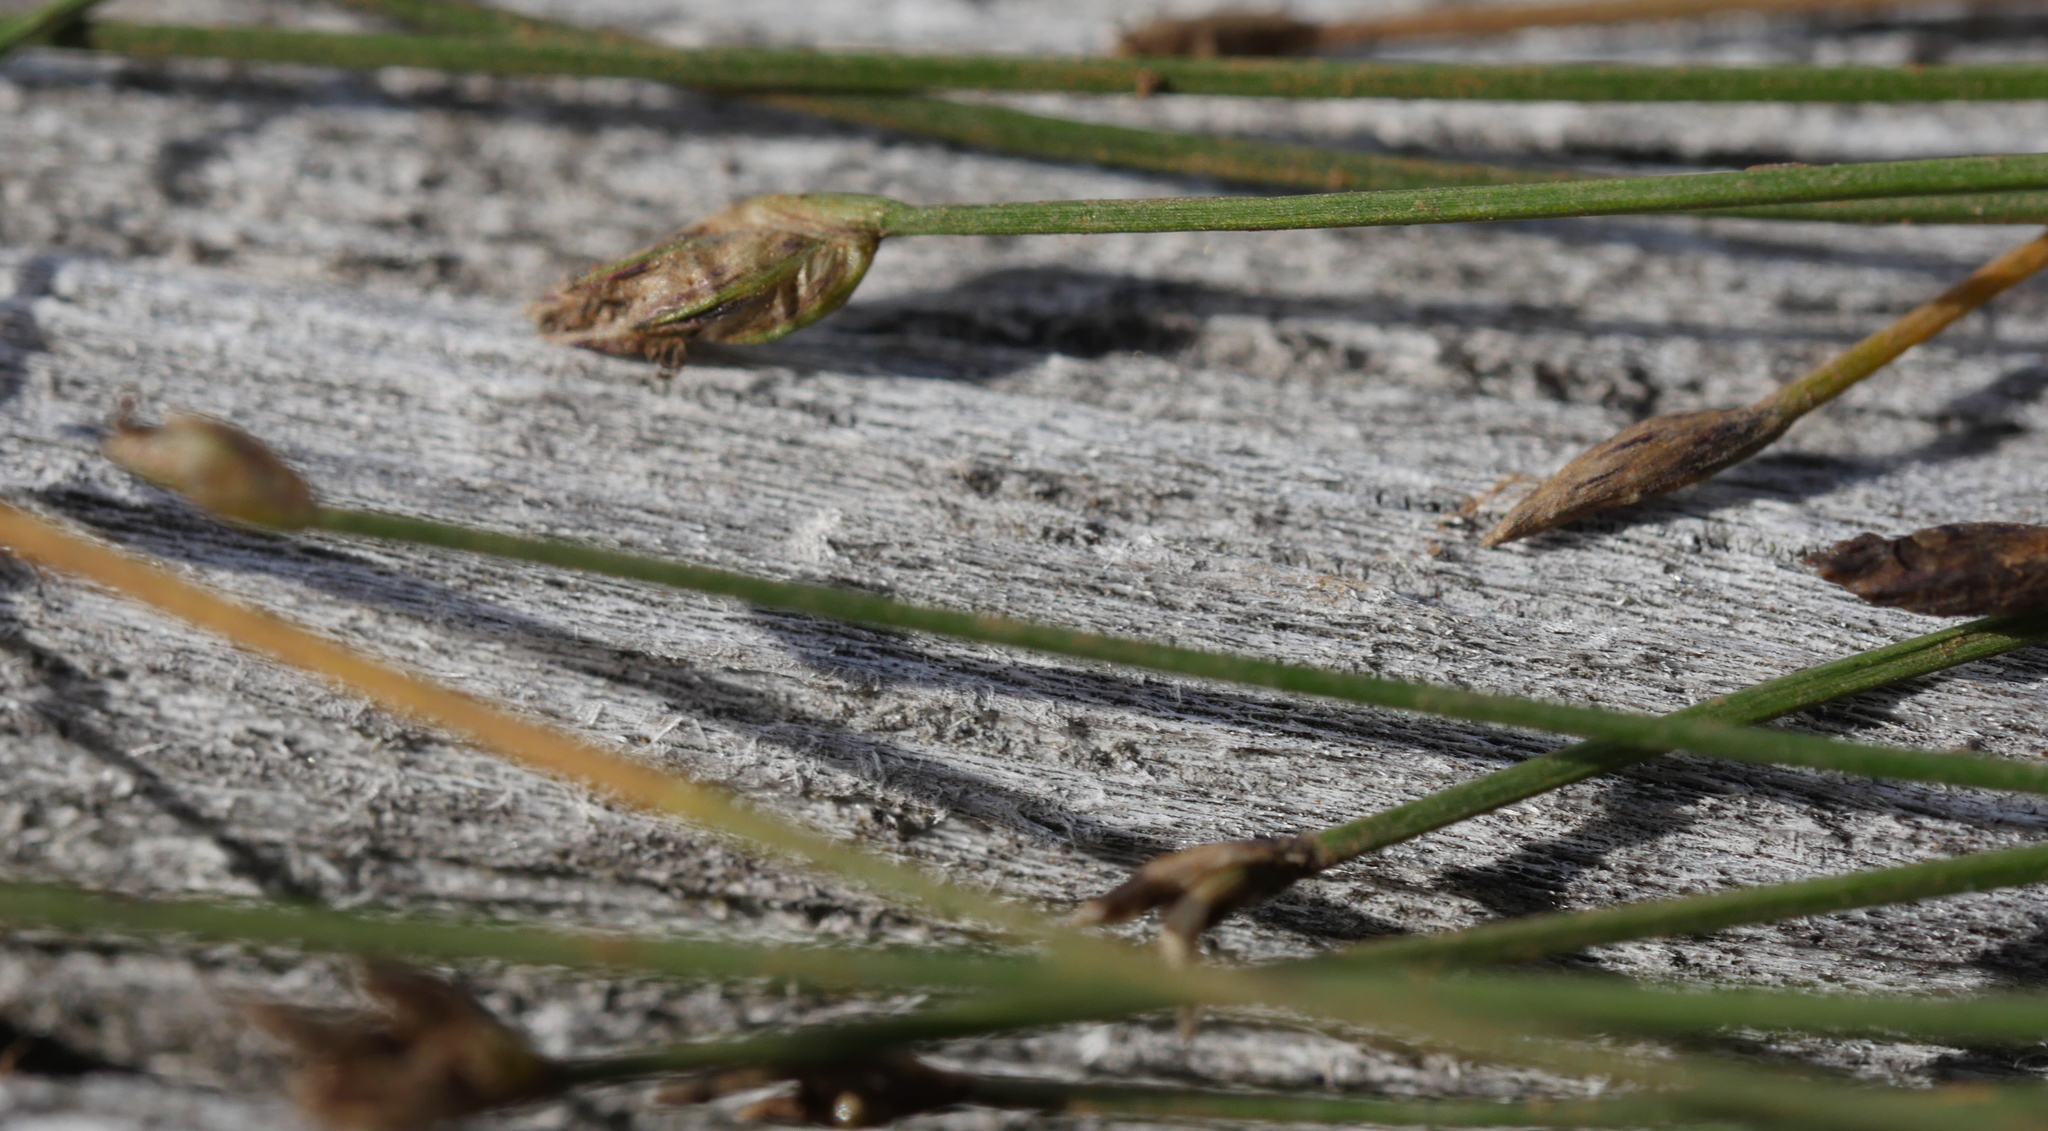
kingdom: Plantae
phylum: Tracheophyta
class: Liliopsida
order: Poales
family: Cyperaceae
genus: Isolepis
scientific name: Isolepis reticularis
